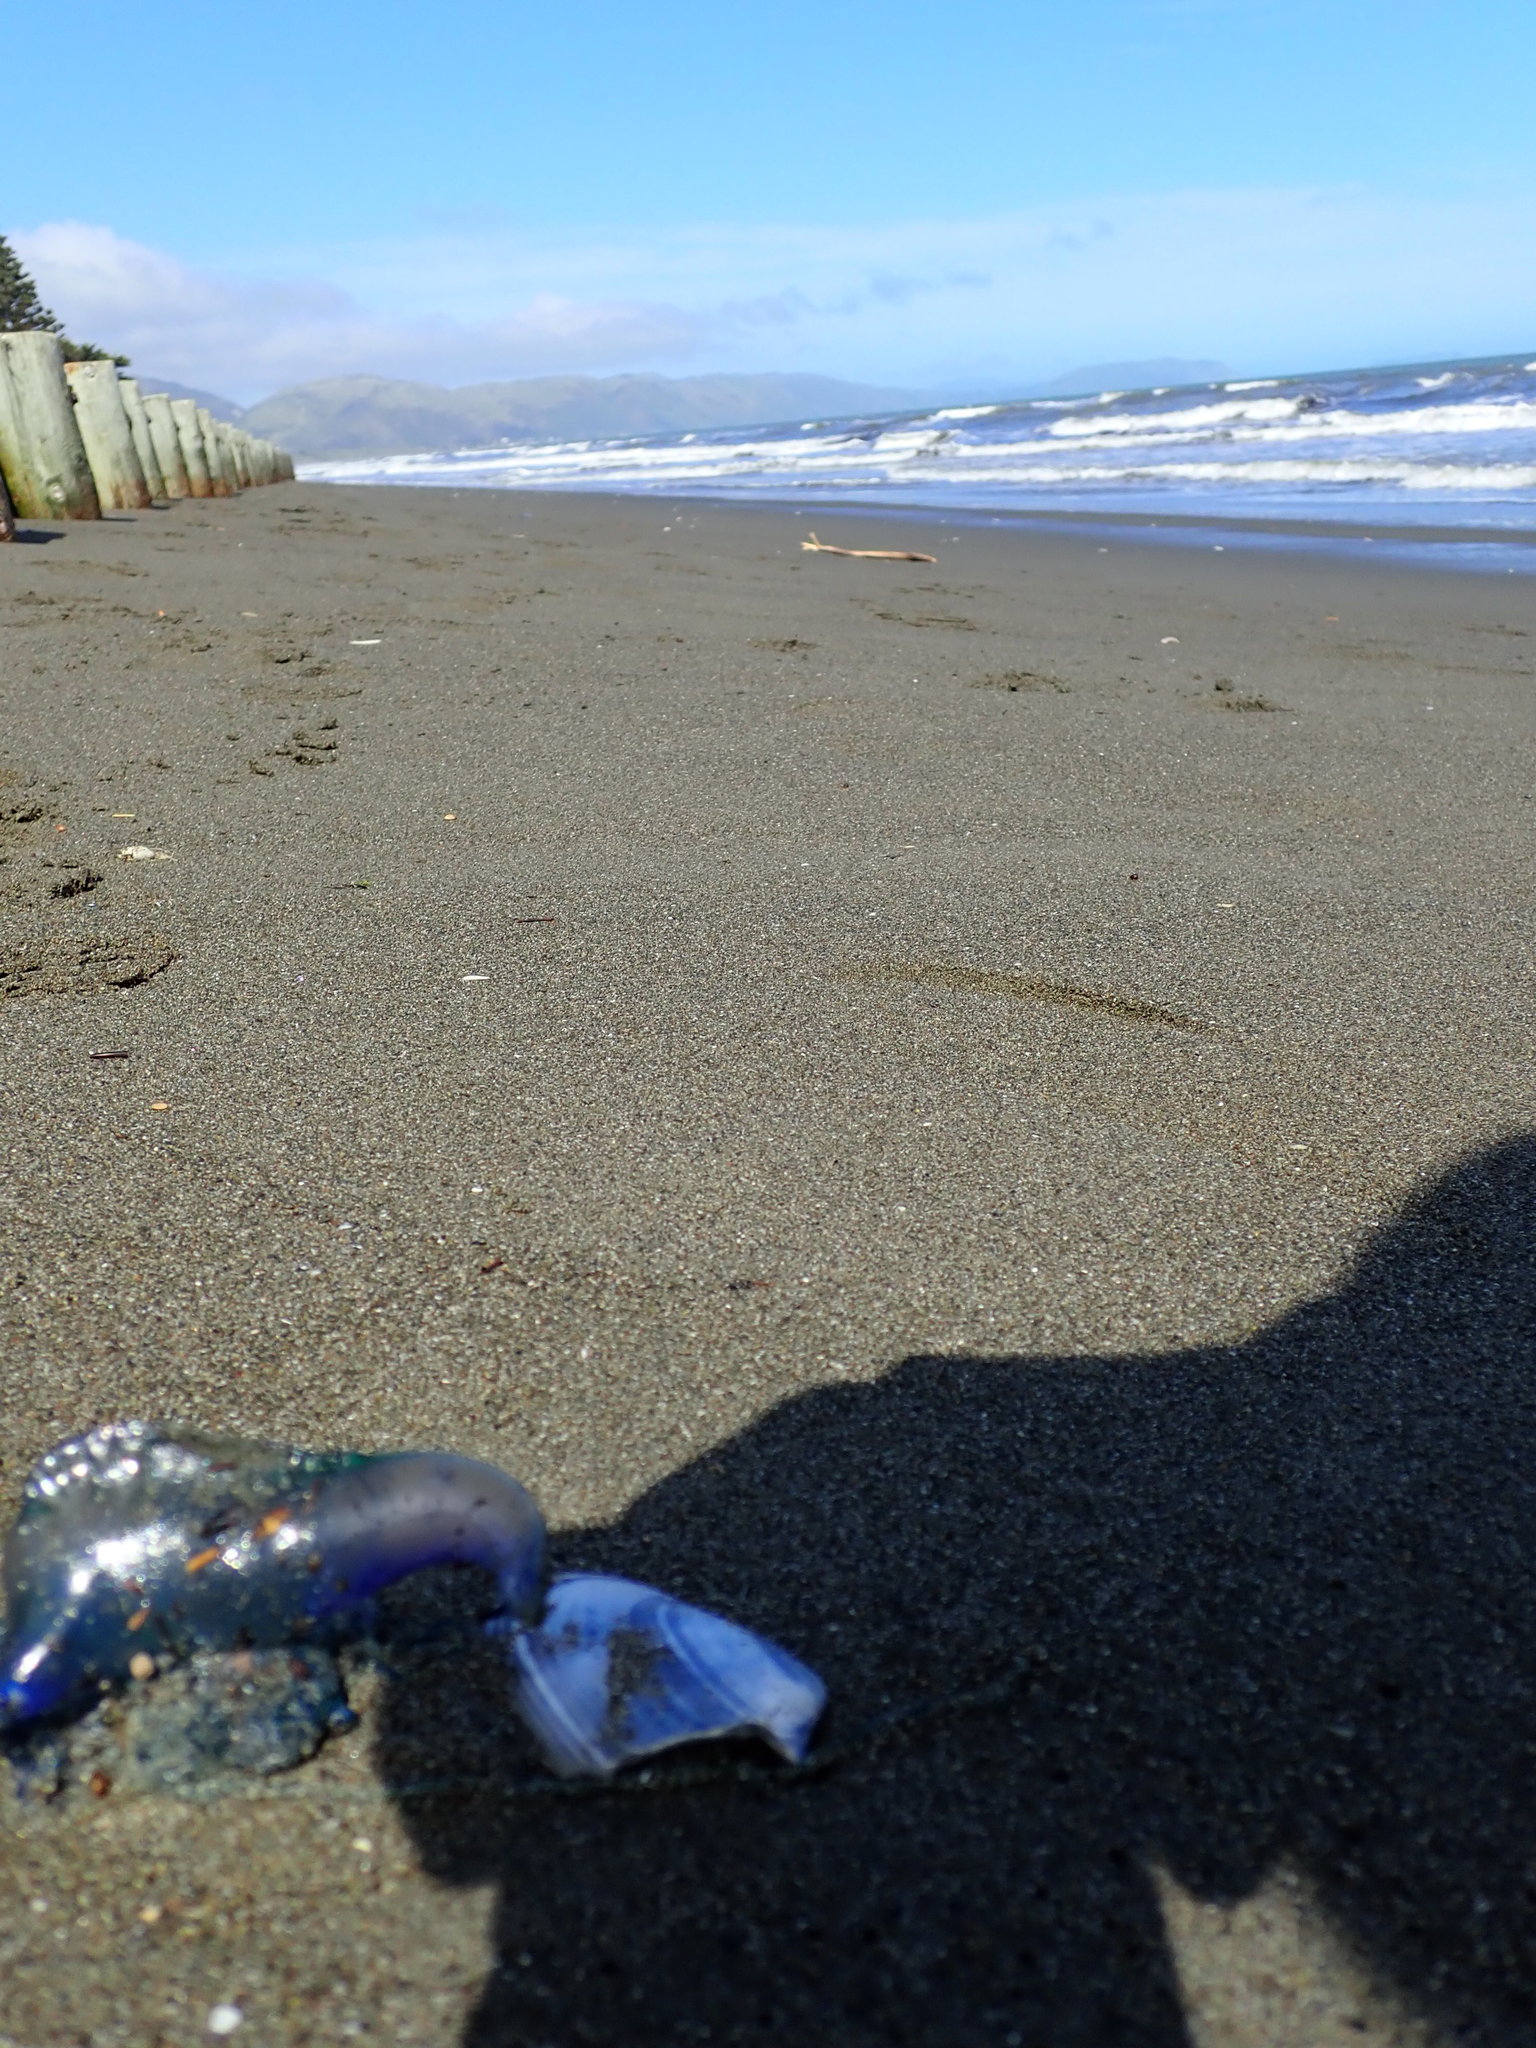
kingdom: Animalia
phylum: Cnidaria
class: Hydrozoa
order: Siphonophorae
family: Physaliidae
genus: Physalia
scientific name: Physalia physalis
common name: Portuguese man-of-war
